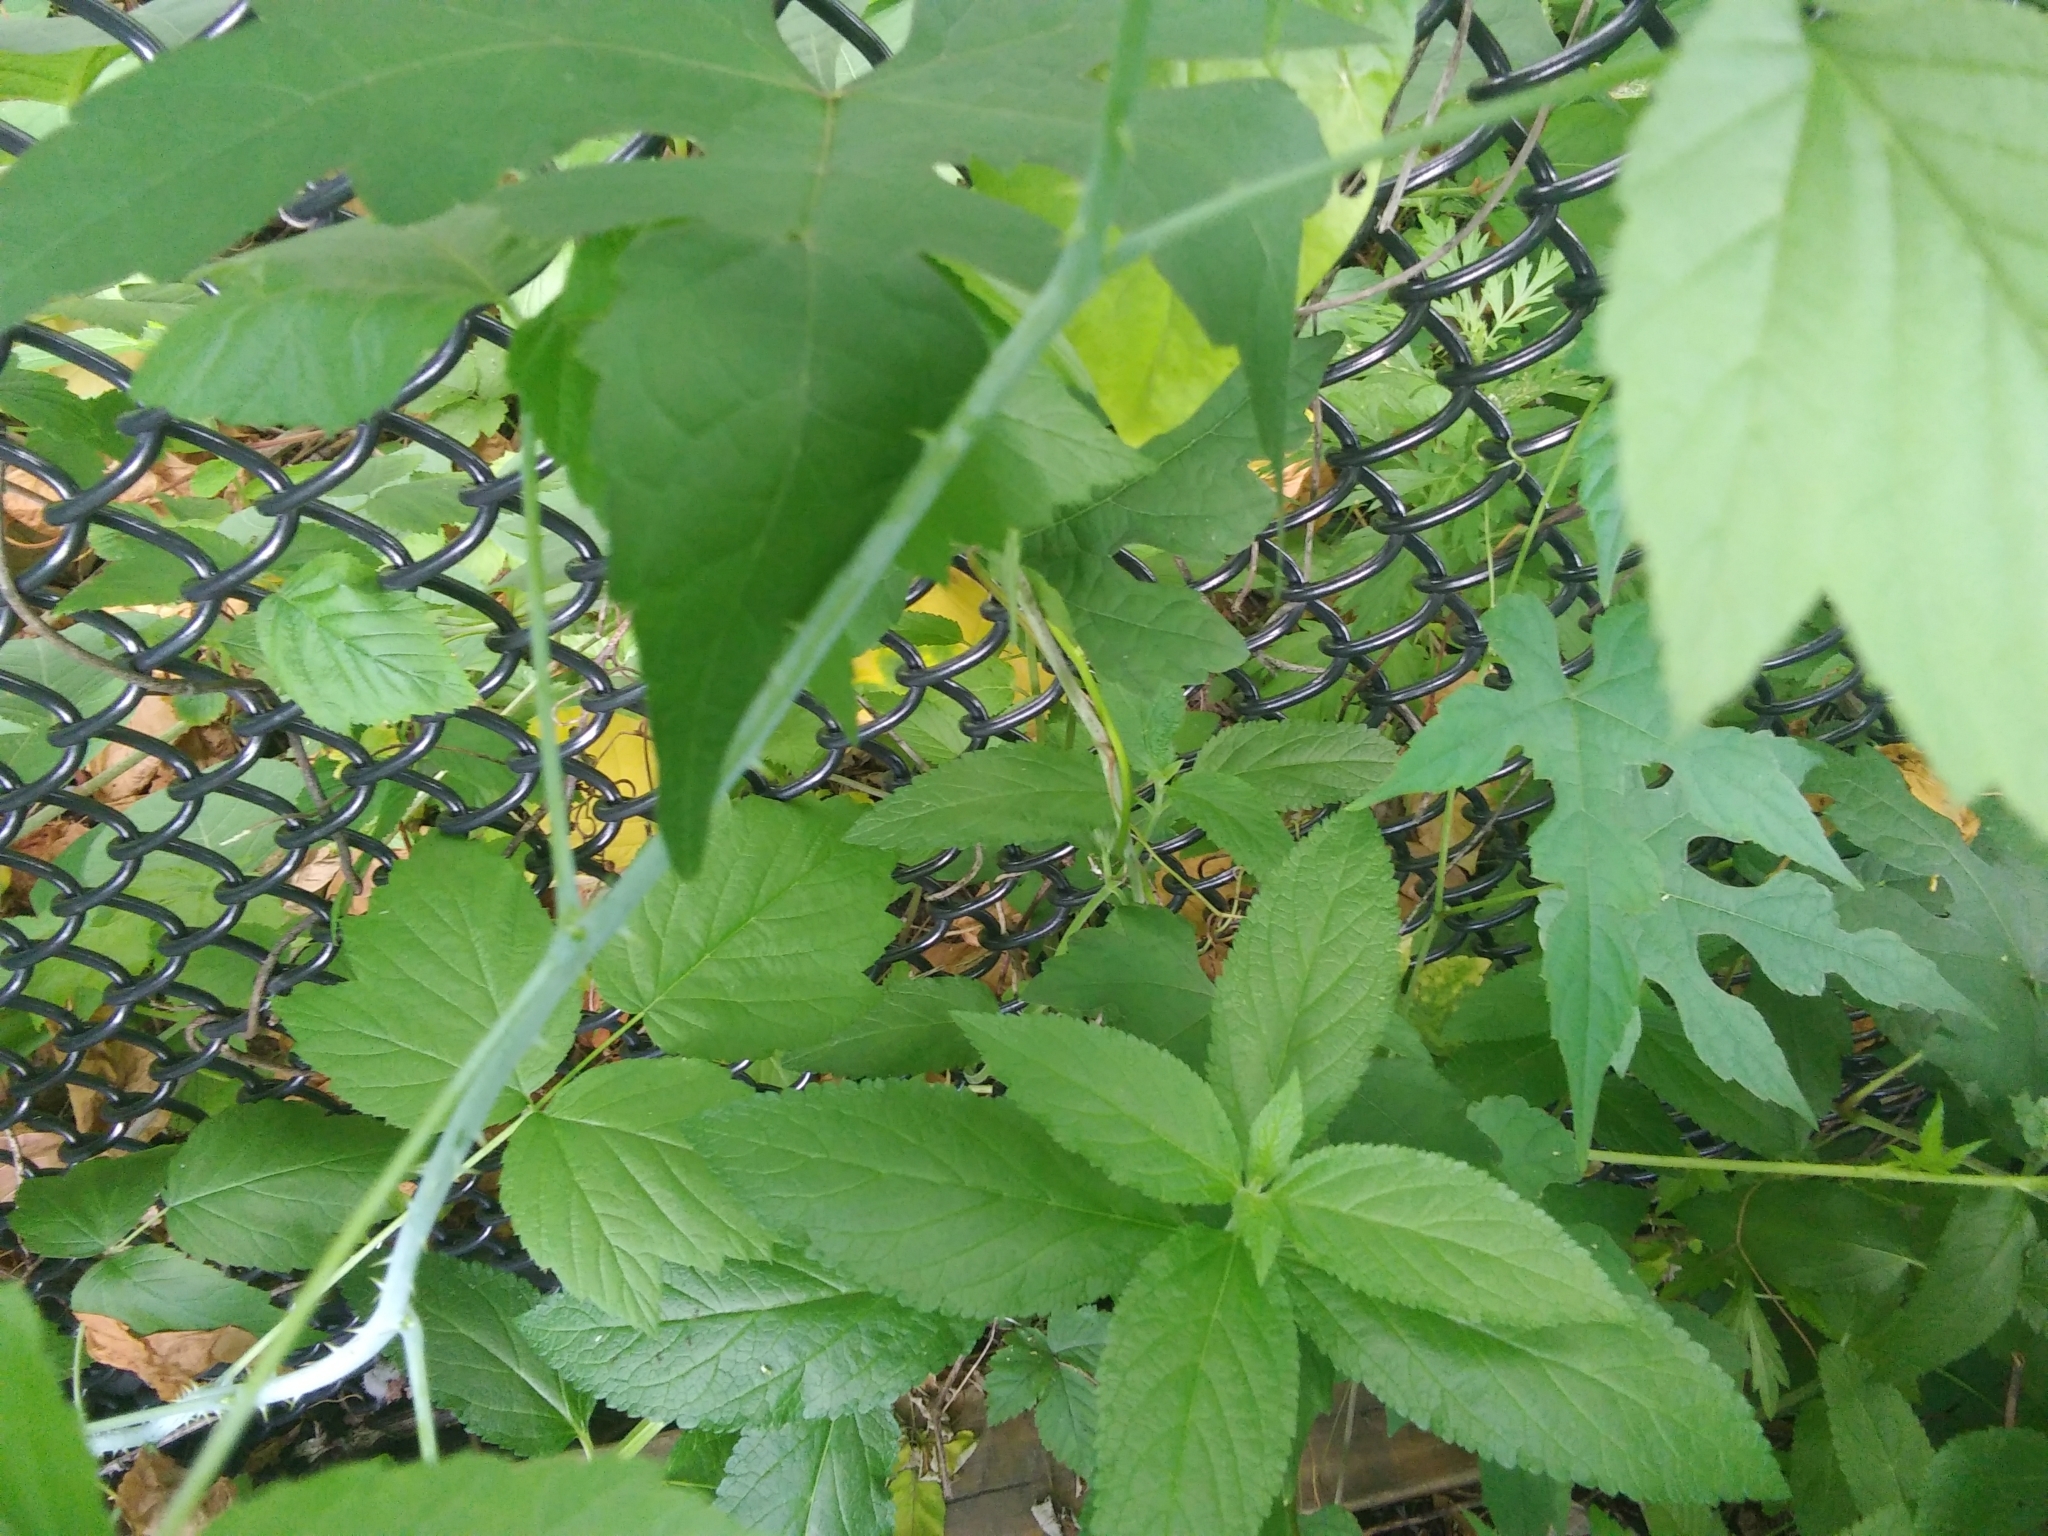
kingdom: Plantae
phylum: Tracheophyta
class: Magnoliopsida
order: Rosales
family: Rosaceae
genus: Rubus
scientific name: Rubus occidentalis
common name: Black raspberry
